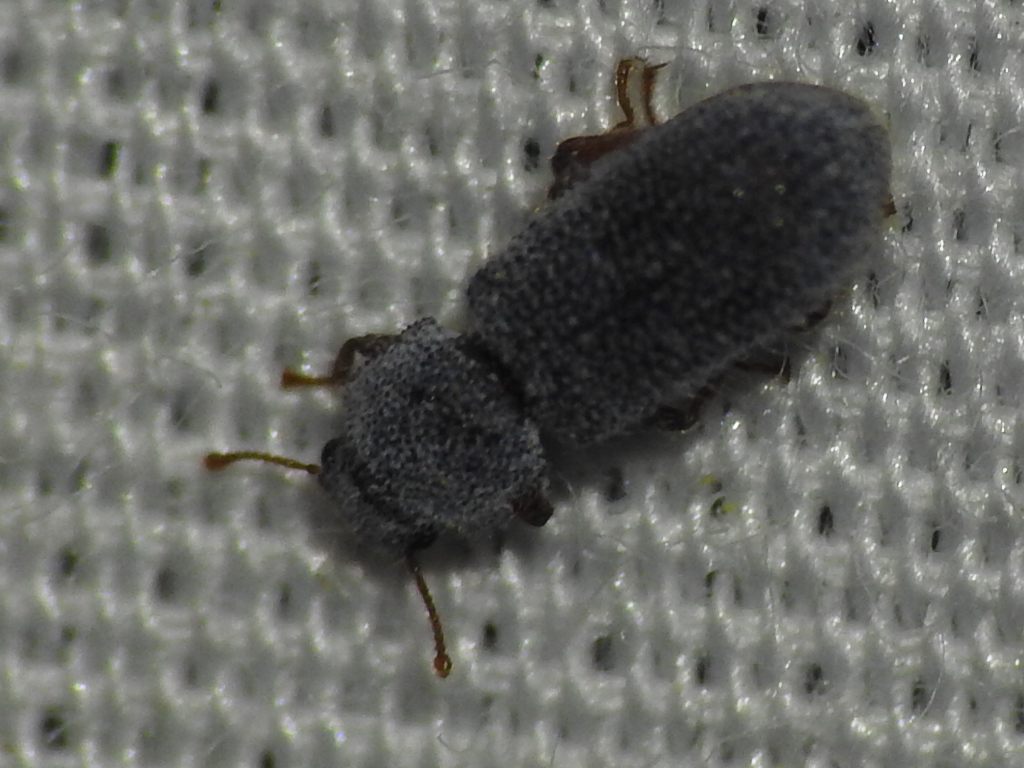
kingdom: Animalia
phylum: Arthropoda
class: Insecta
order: Coleoptera
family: Zopheridae
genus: Endeitoma
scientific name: Endeitoma granulata
